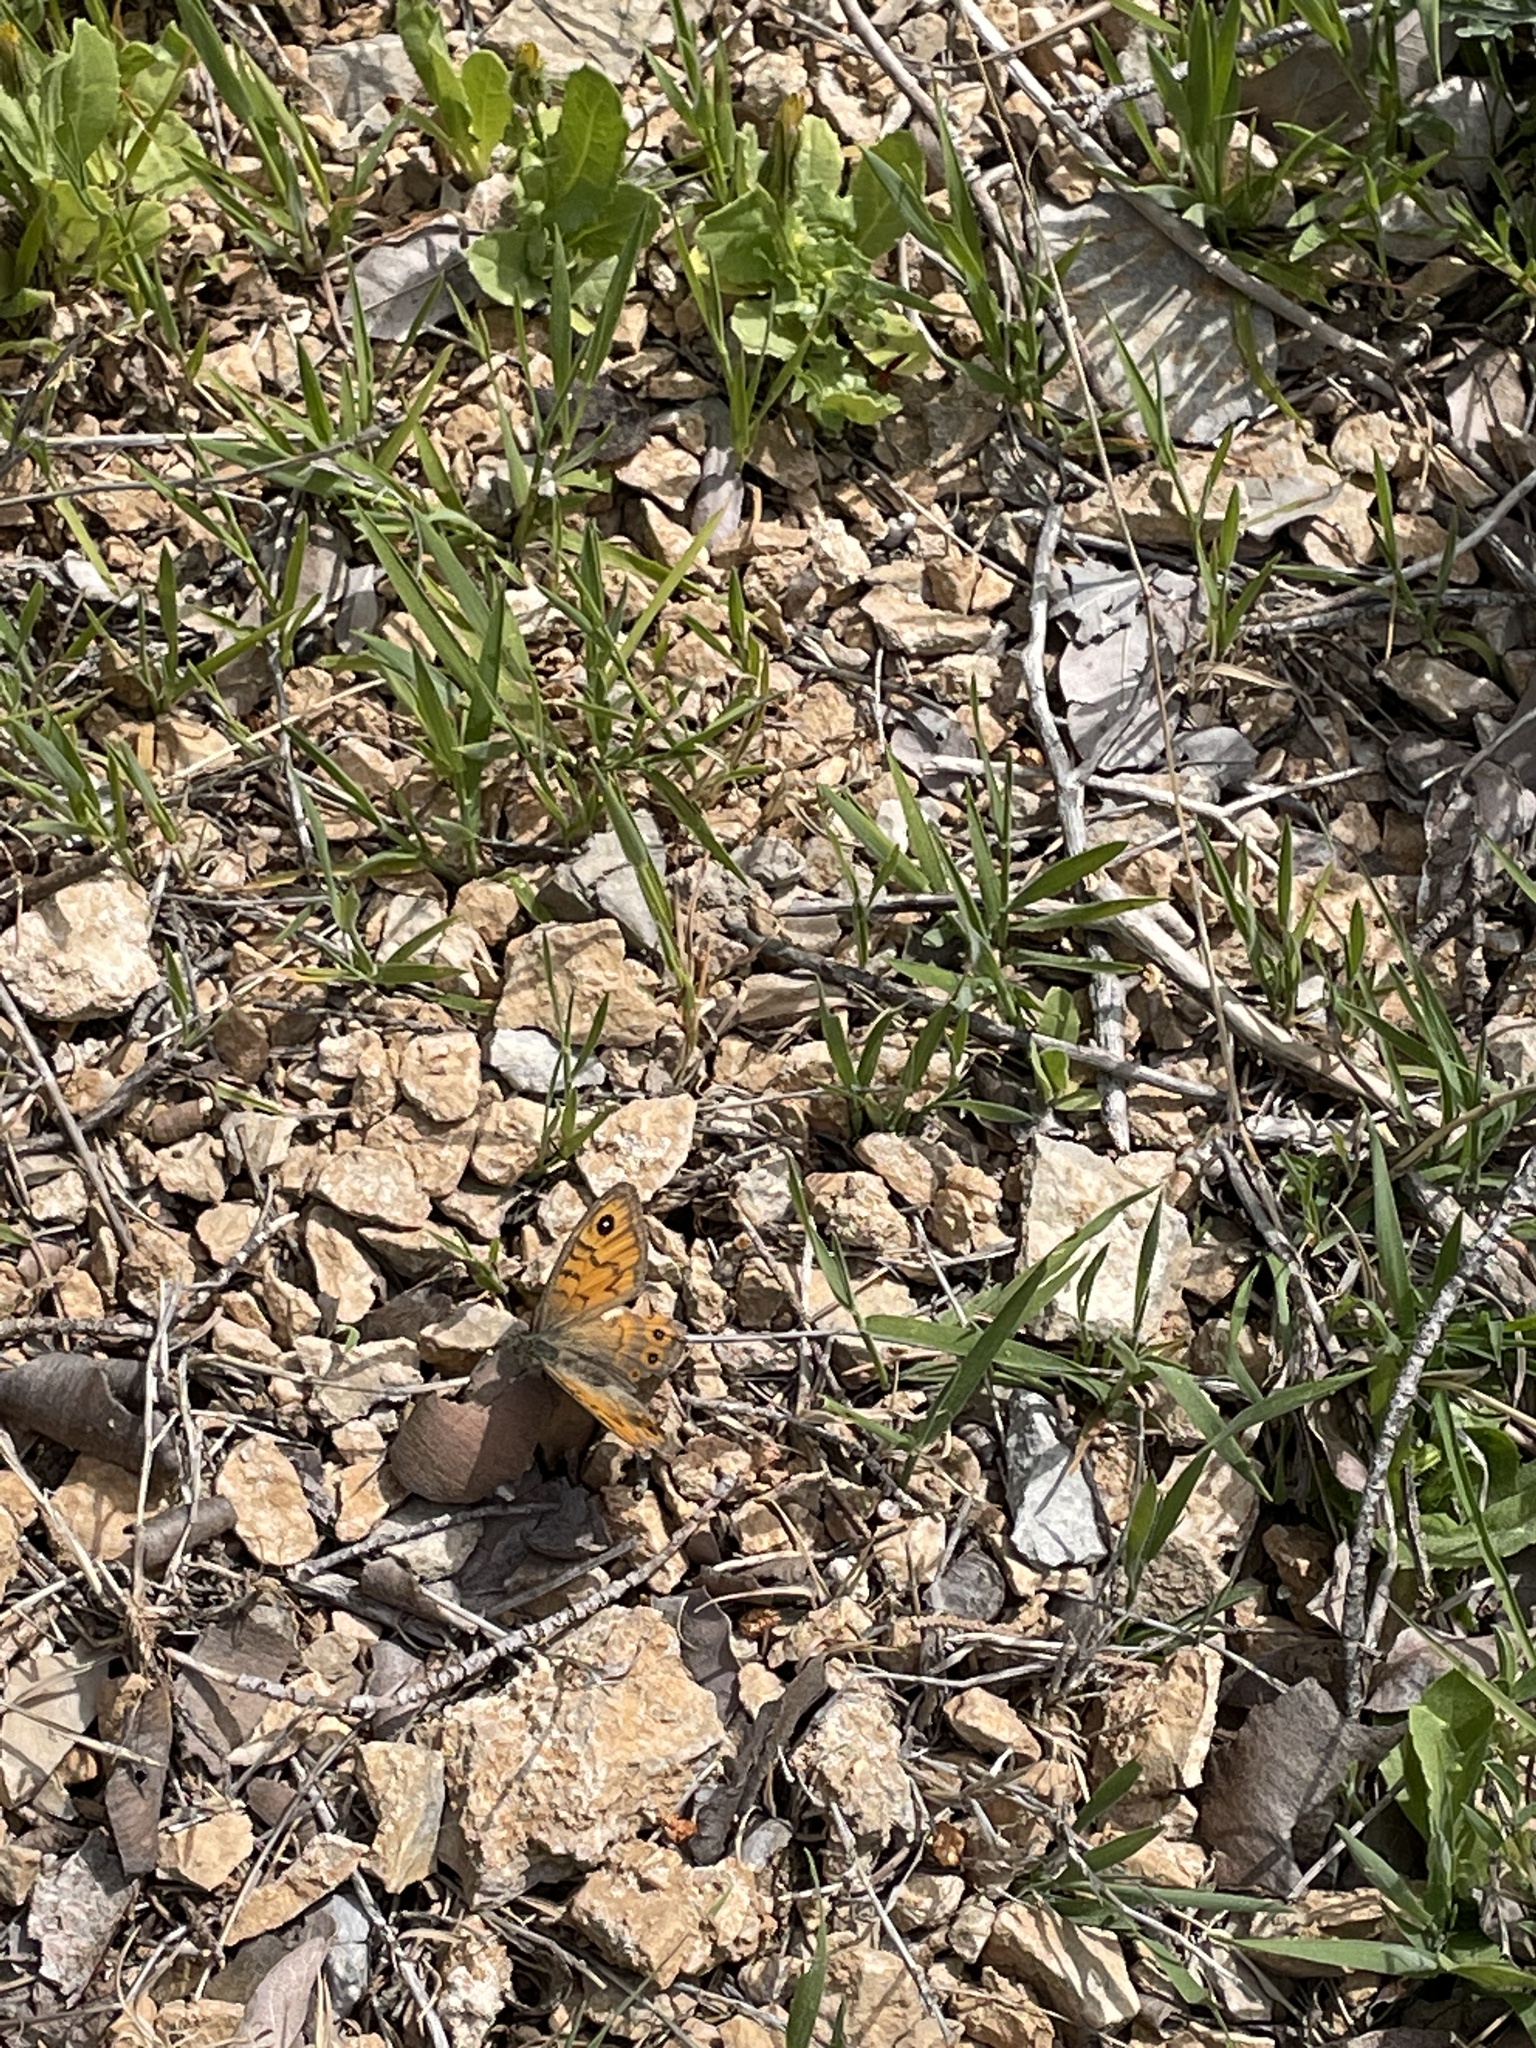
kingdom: Animalia
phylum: Arthropoda
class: Insecta
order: Lepidoptera
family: Nymphalidae
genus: Pararge
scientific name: Pararge Lasiommata megera
